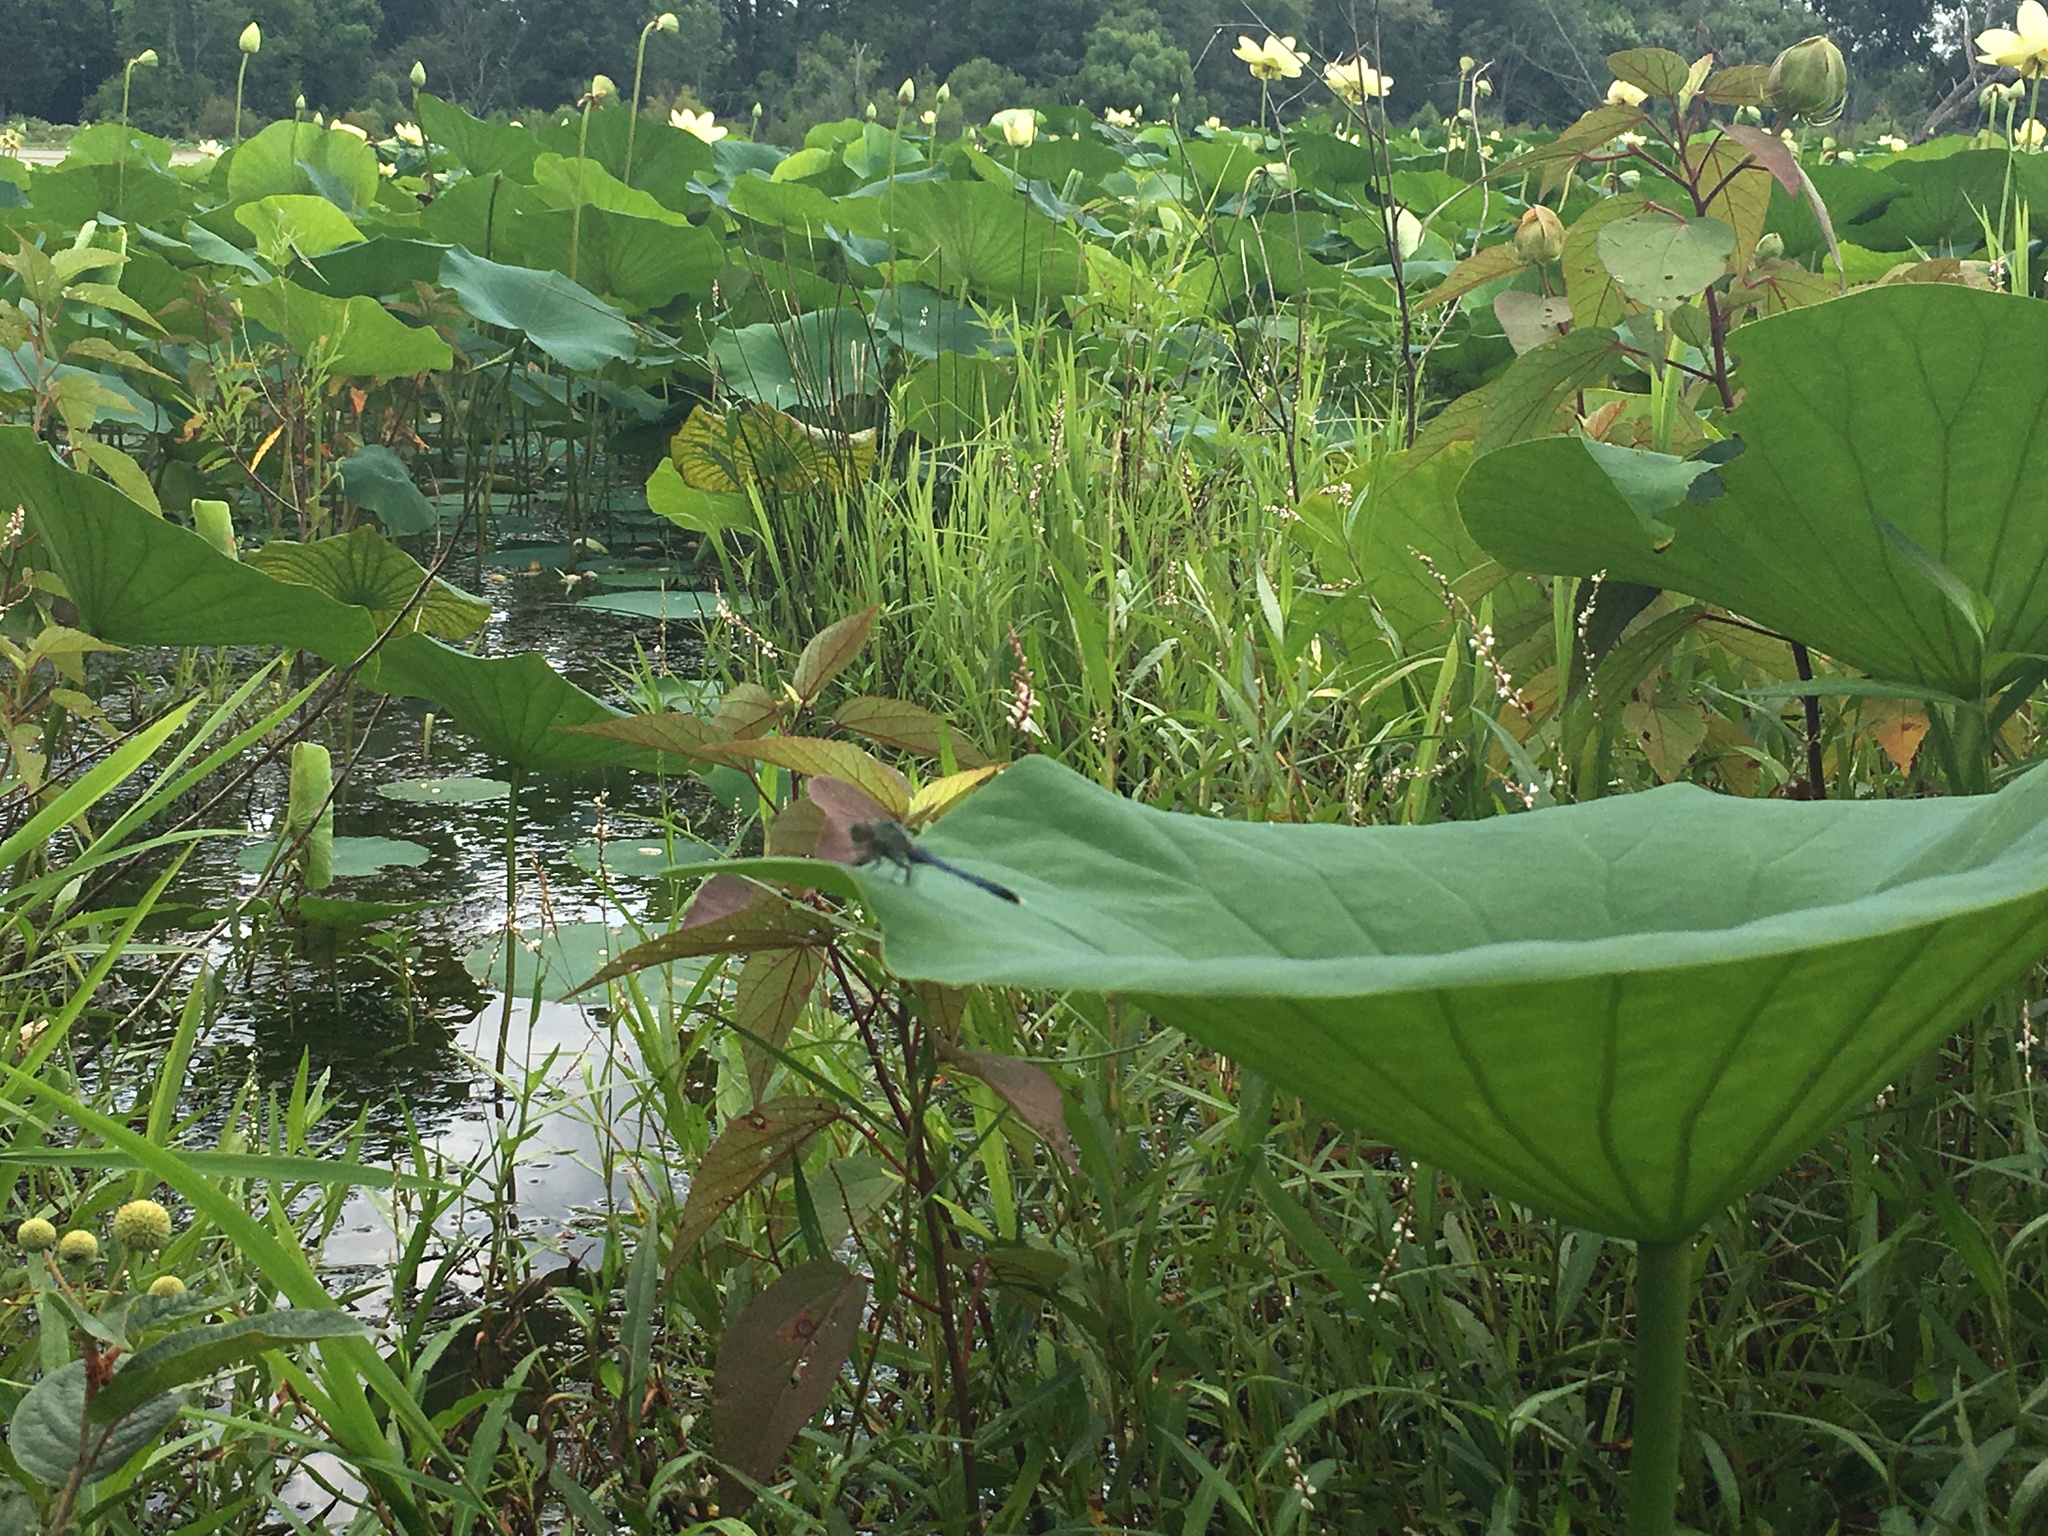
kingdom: Animalia
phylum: Arthropoda
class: Insecta
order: Odonata
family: Libellulidae
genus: Erythemis
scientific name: Erythemis simplicicollis
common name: Eastern pondhawk
